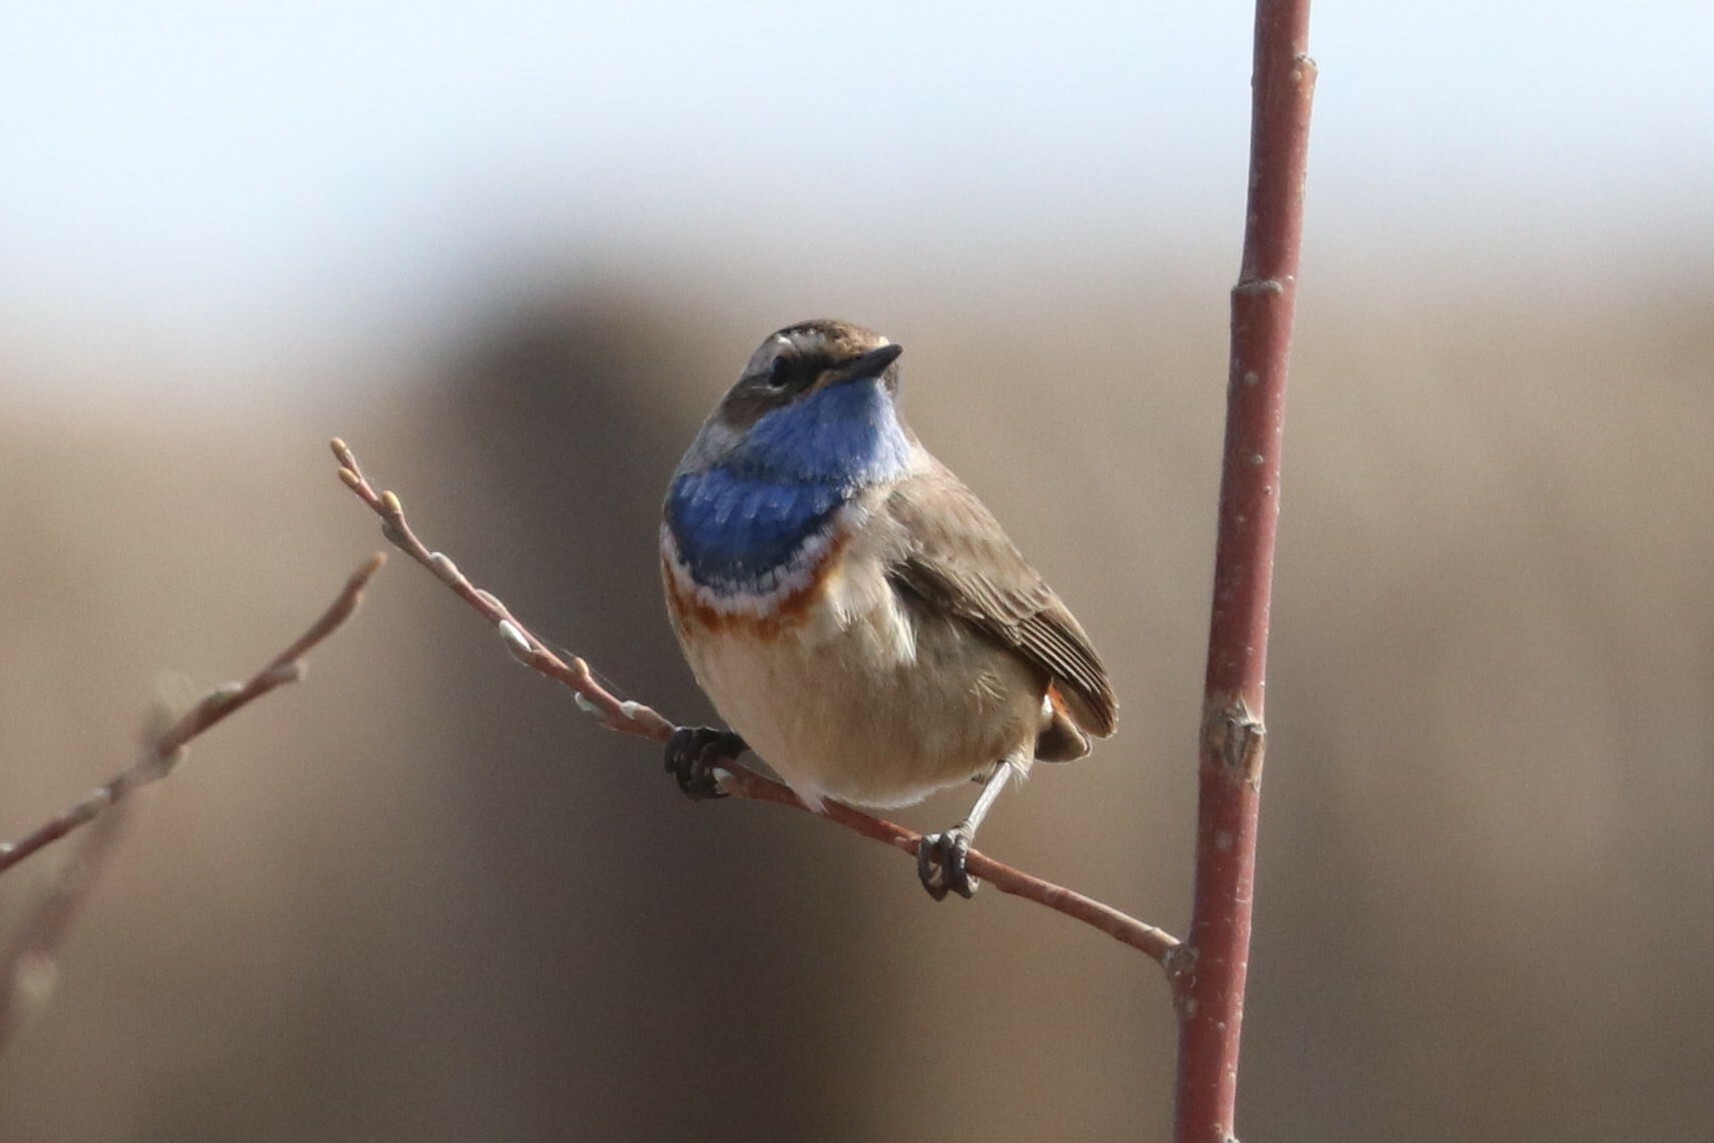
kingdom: Animalia
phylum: Chordata
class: Aves
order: Passeriformes
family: Muscicapidae
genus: Luscinia
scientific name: Luscinia svecica
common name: Bluethroat
